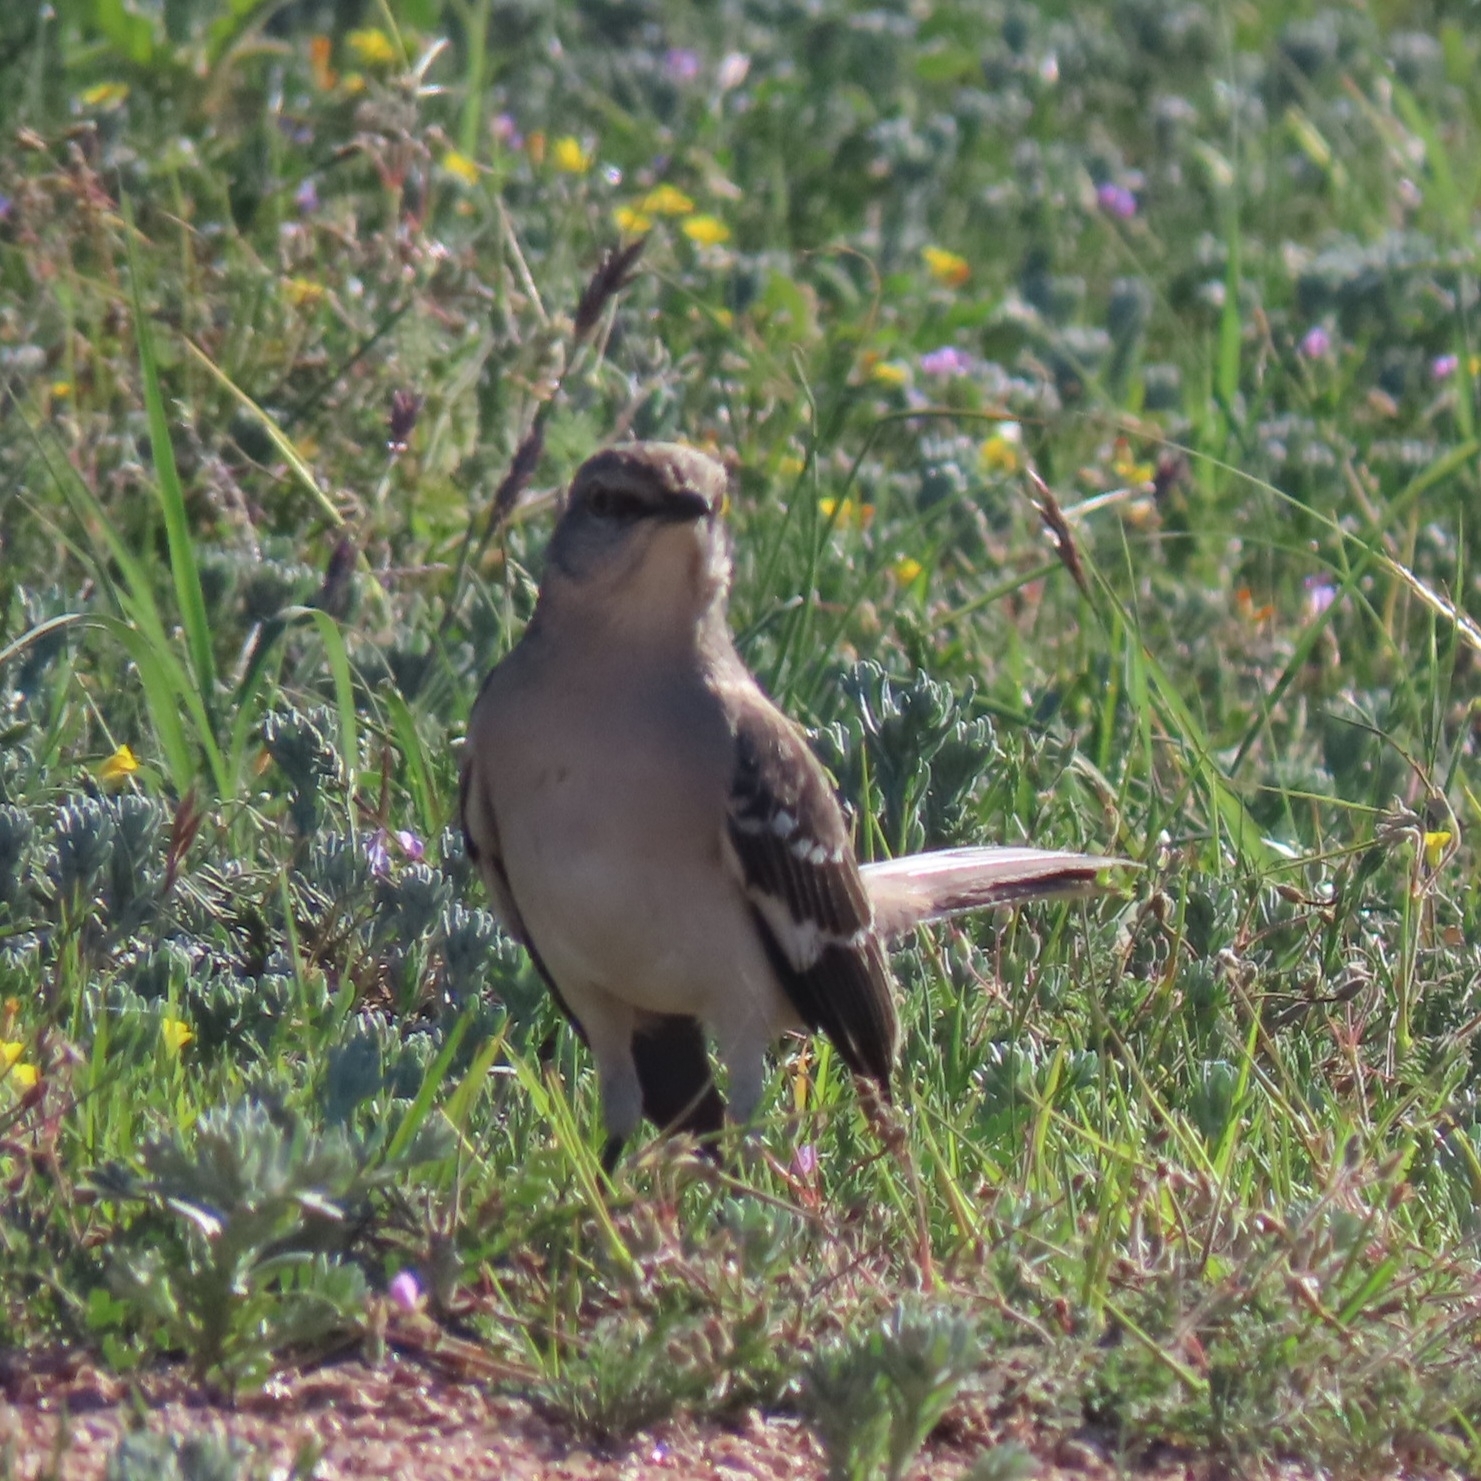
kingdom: Animalia
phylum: Chordata
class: Aves
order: Passeriformes
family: Mimidae
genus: Mimus
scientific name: Mimus polyglottos
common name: Northern mockingbird
